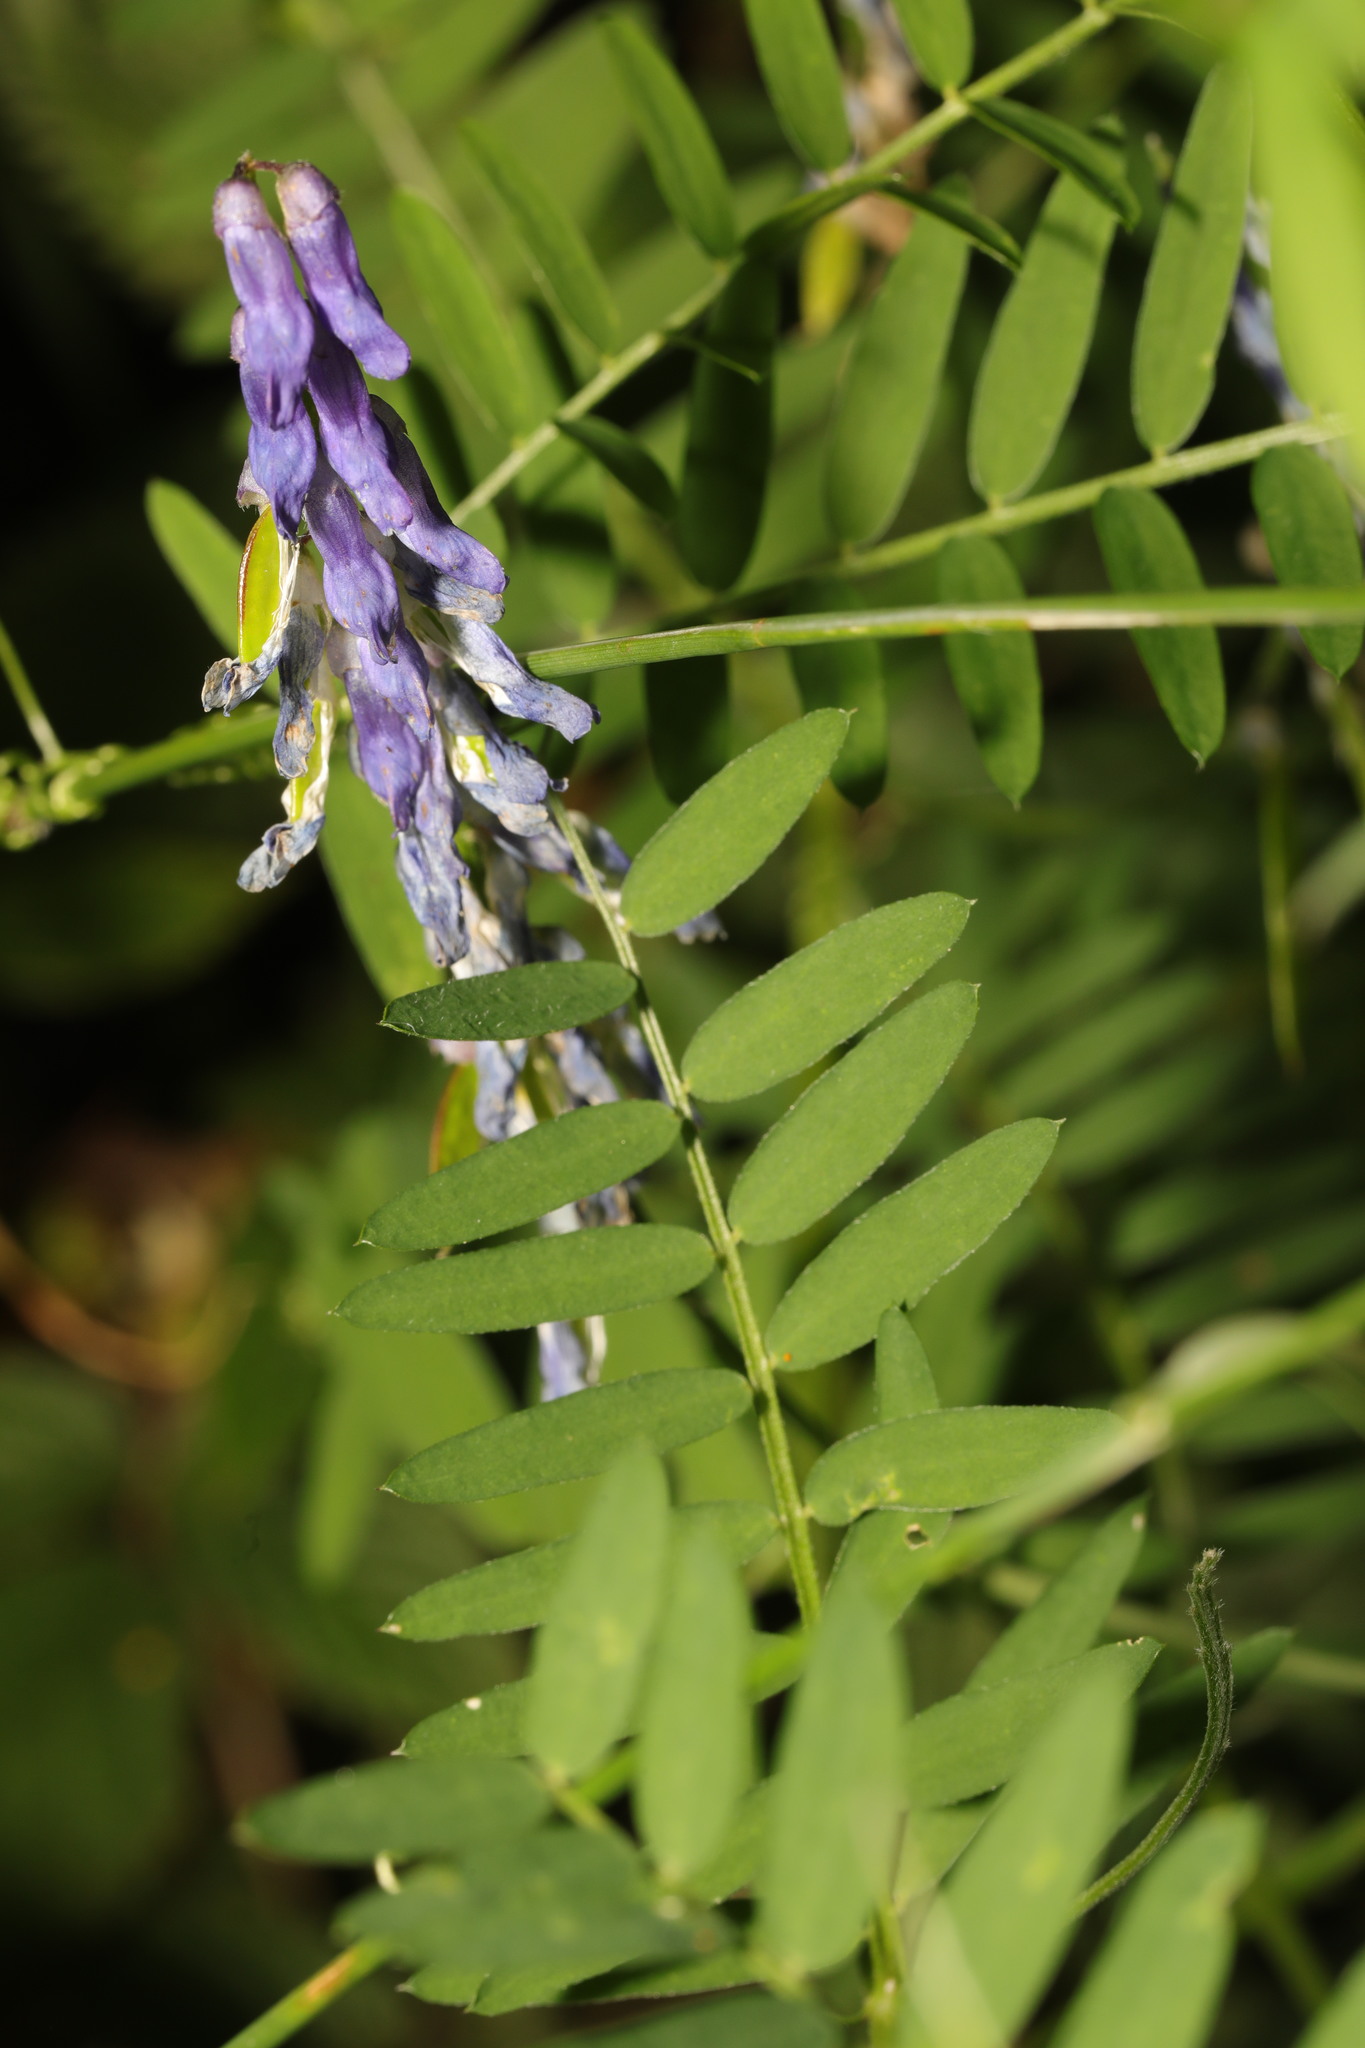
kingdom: Plantae
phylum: Tracheophyta
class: Magnoliopsida
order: Fabales
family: Fabaceae
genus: Vicia
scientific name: Vicia cracca
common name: Bird vetch
